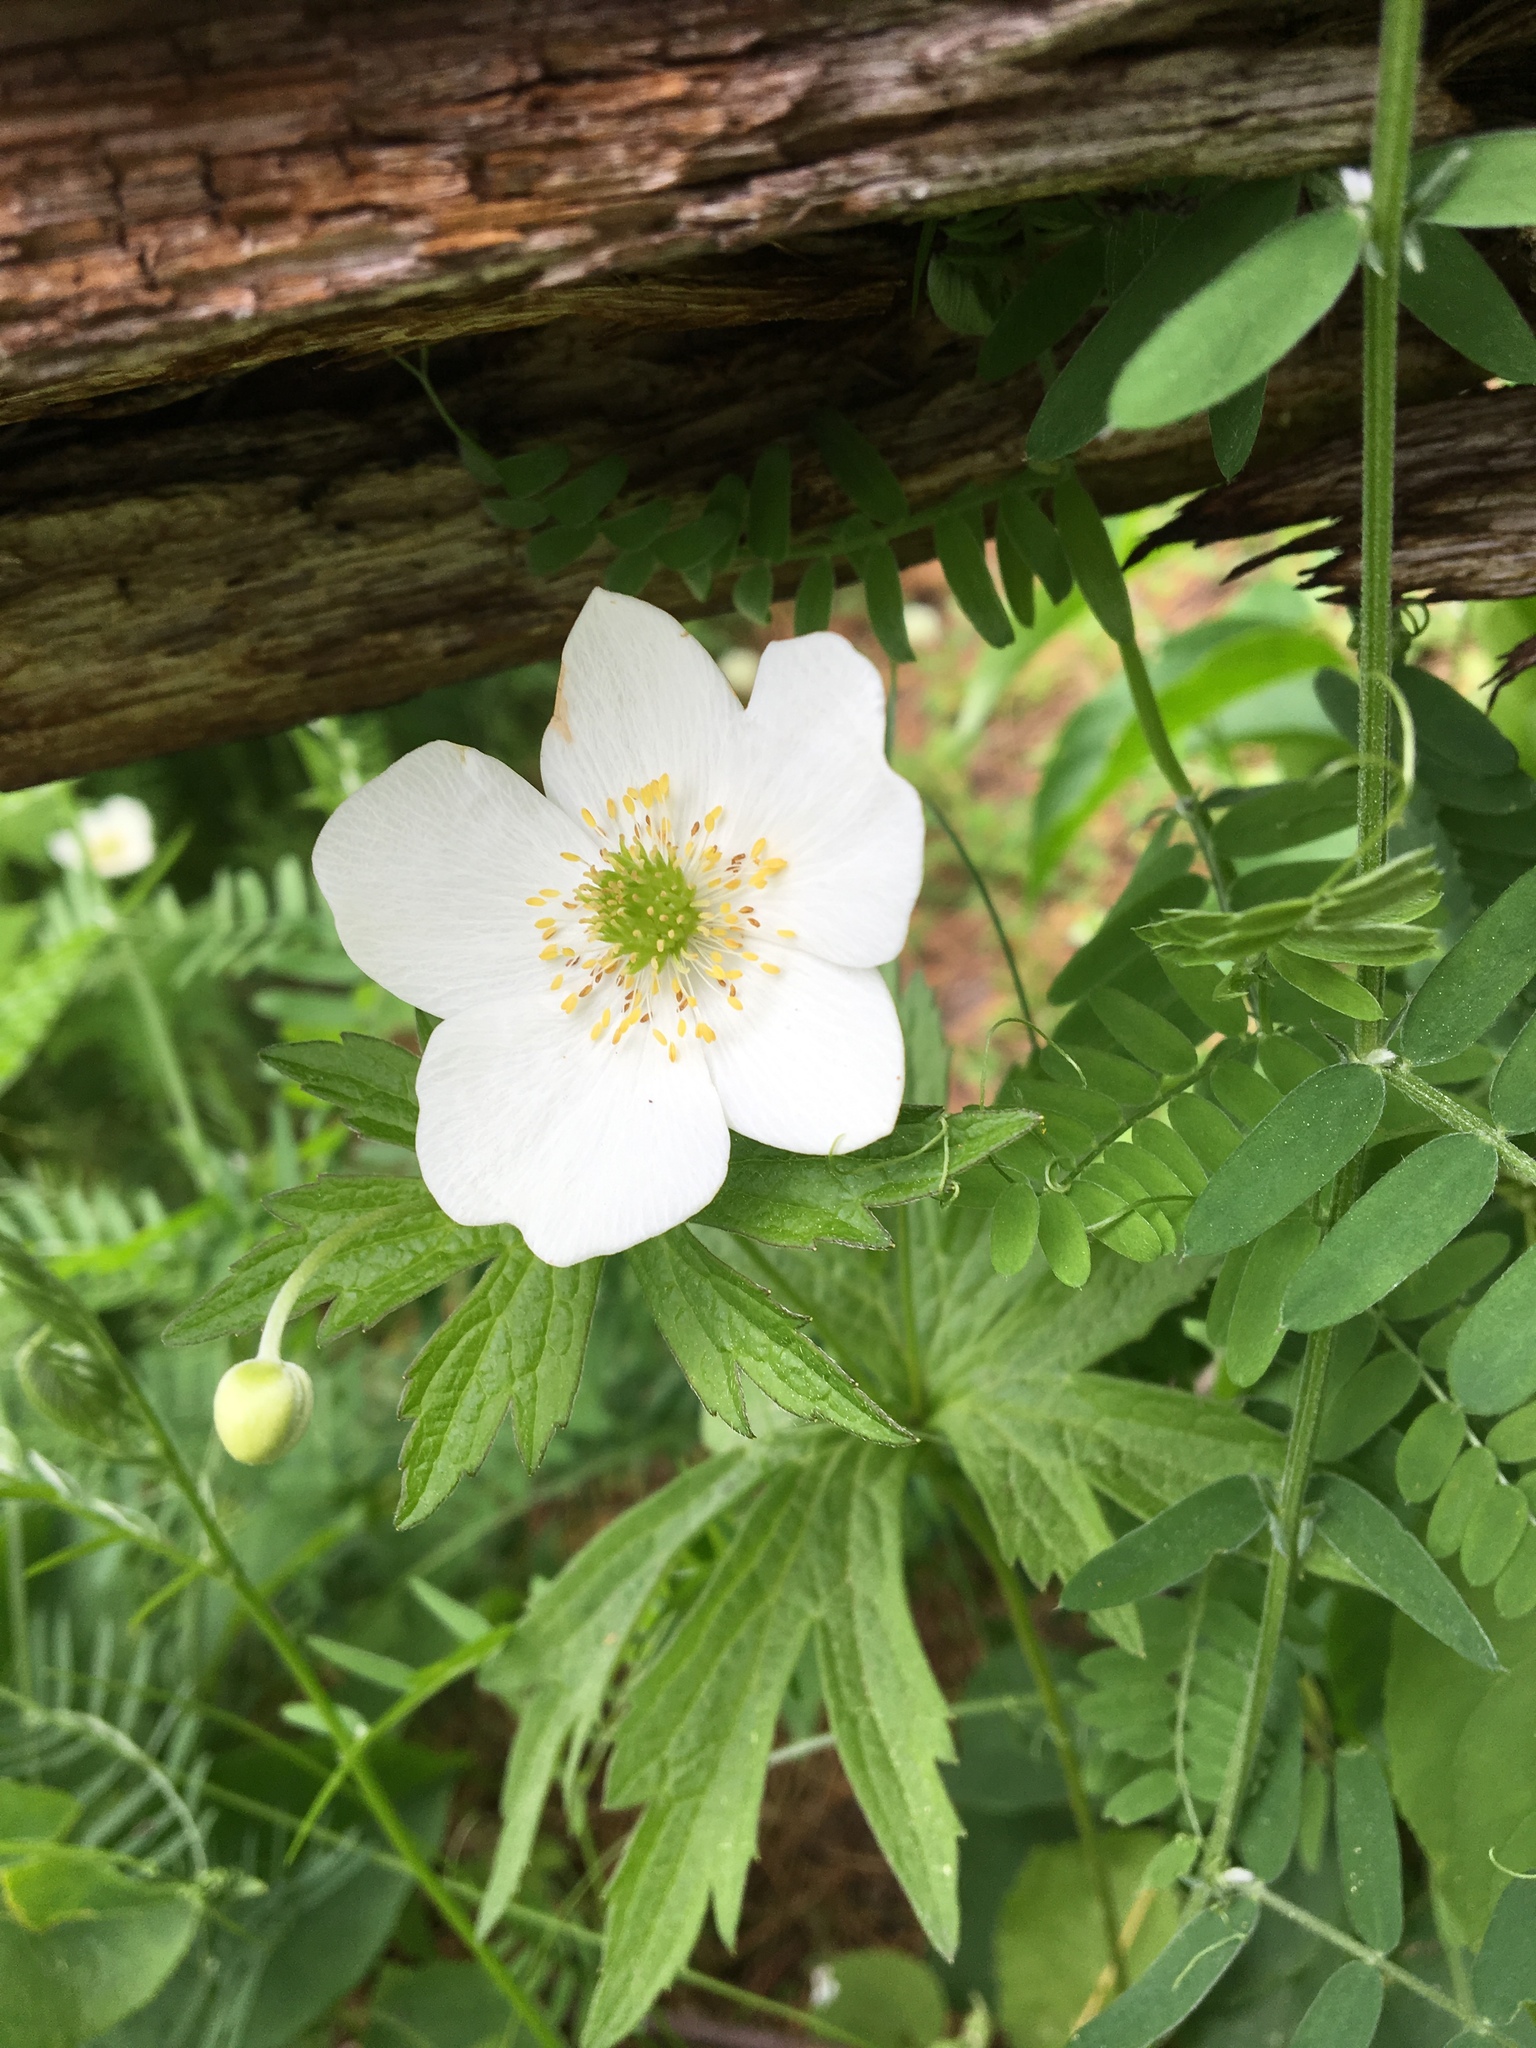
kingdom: Plantae
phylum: Tracheophyta
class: Magnoliopsida
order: Ranunculales
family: Ranunculaceae
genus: Anemonastrum
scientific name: Anemonastrum canadense
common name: Canada anemone
